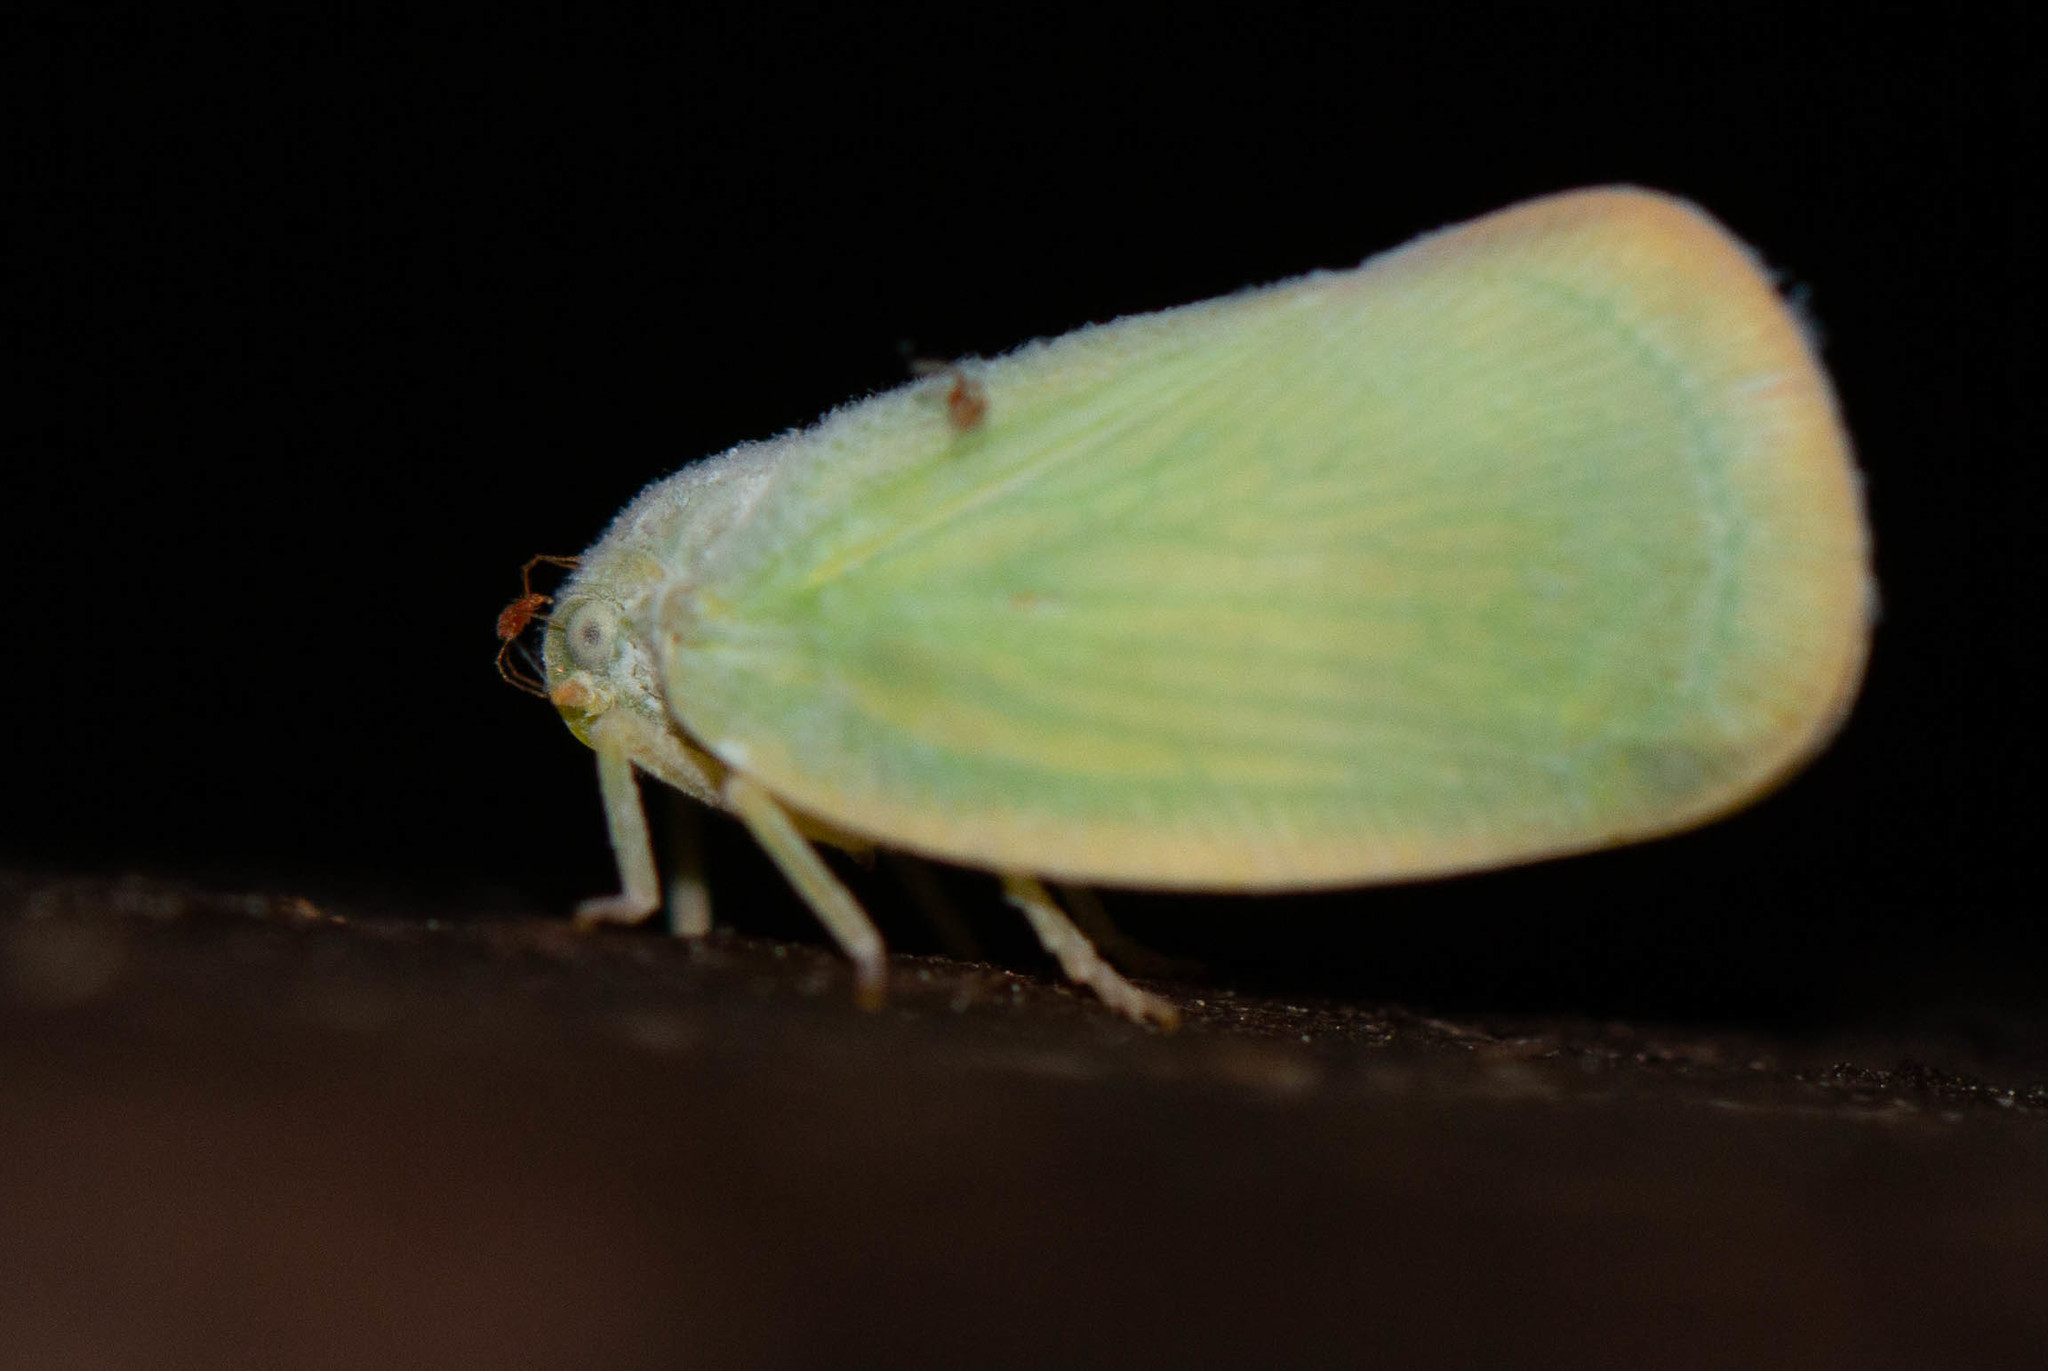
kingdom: Animalia
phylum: Arthropoda
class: Insecta
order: Hemiptera
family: Flatidae
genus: Ormenoides
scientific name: Ormenoides venusta
